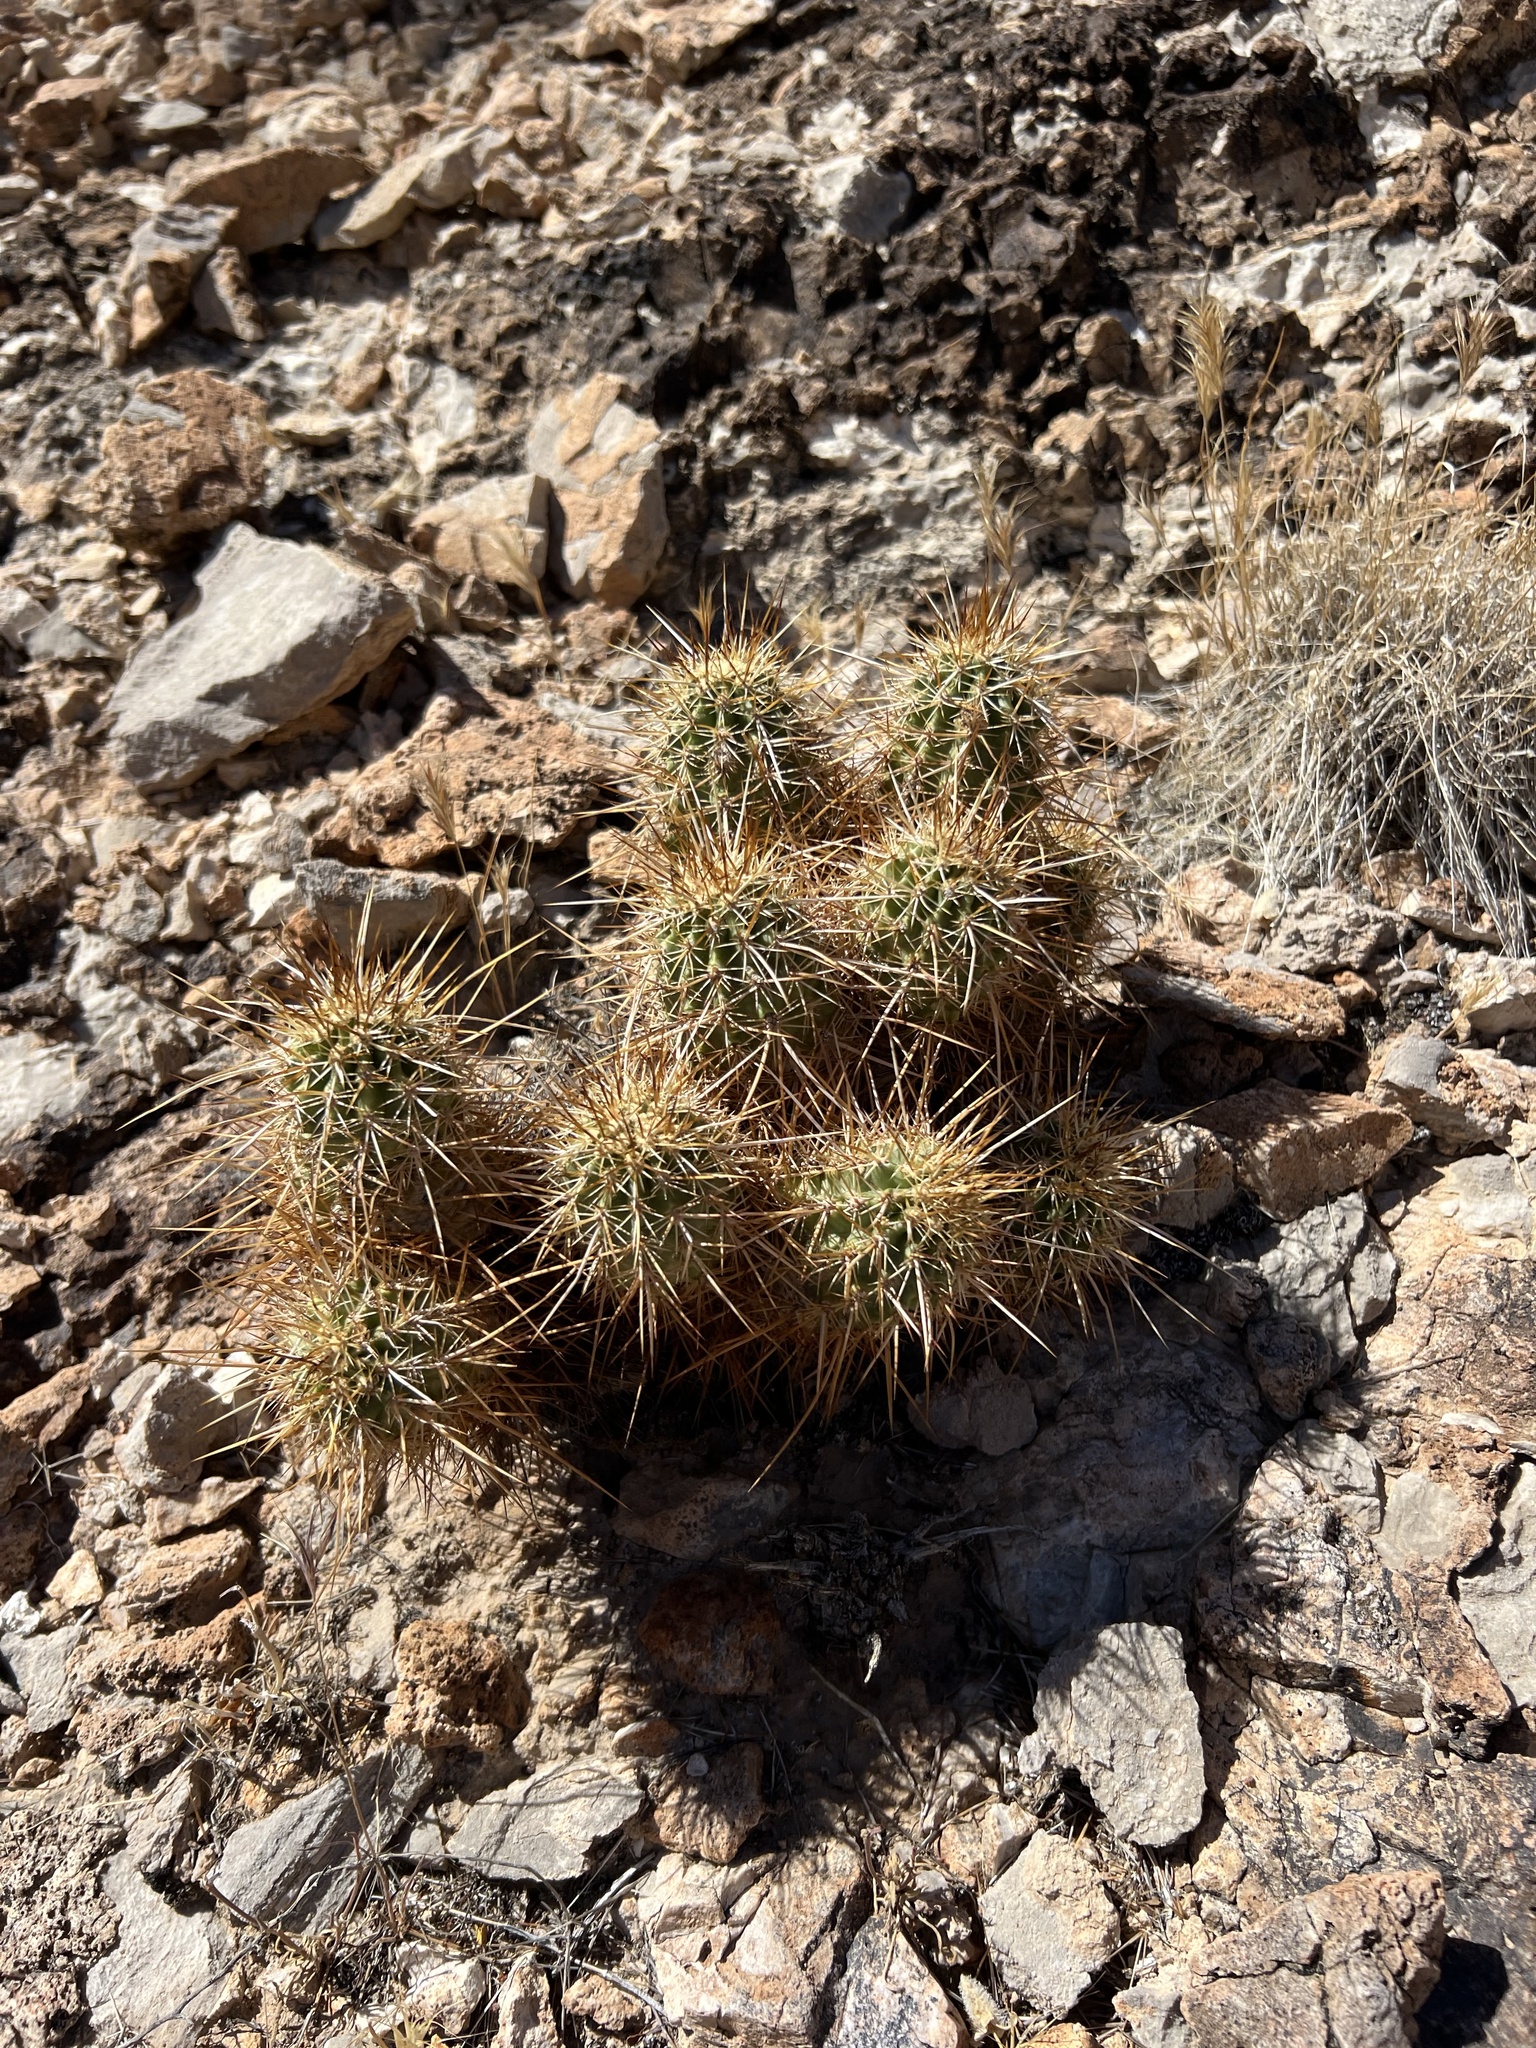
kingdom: Plantae
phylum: Tracheophyta
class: Magnoliopsida
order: Caryophyllales
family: Cactaceae
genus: Echinocereus
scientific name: Echinocereus engelmannii
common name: Engelmann's hedgehog cactus
